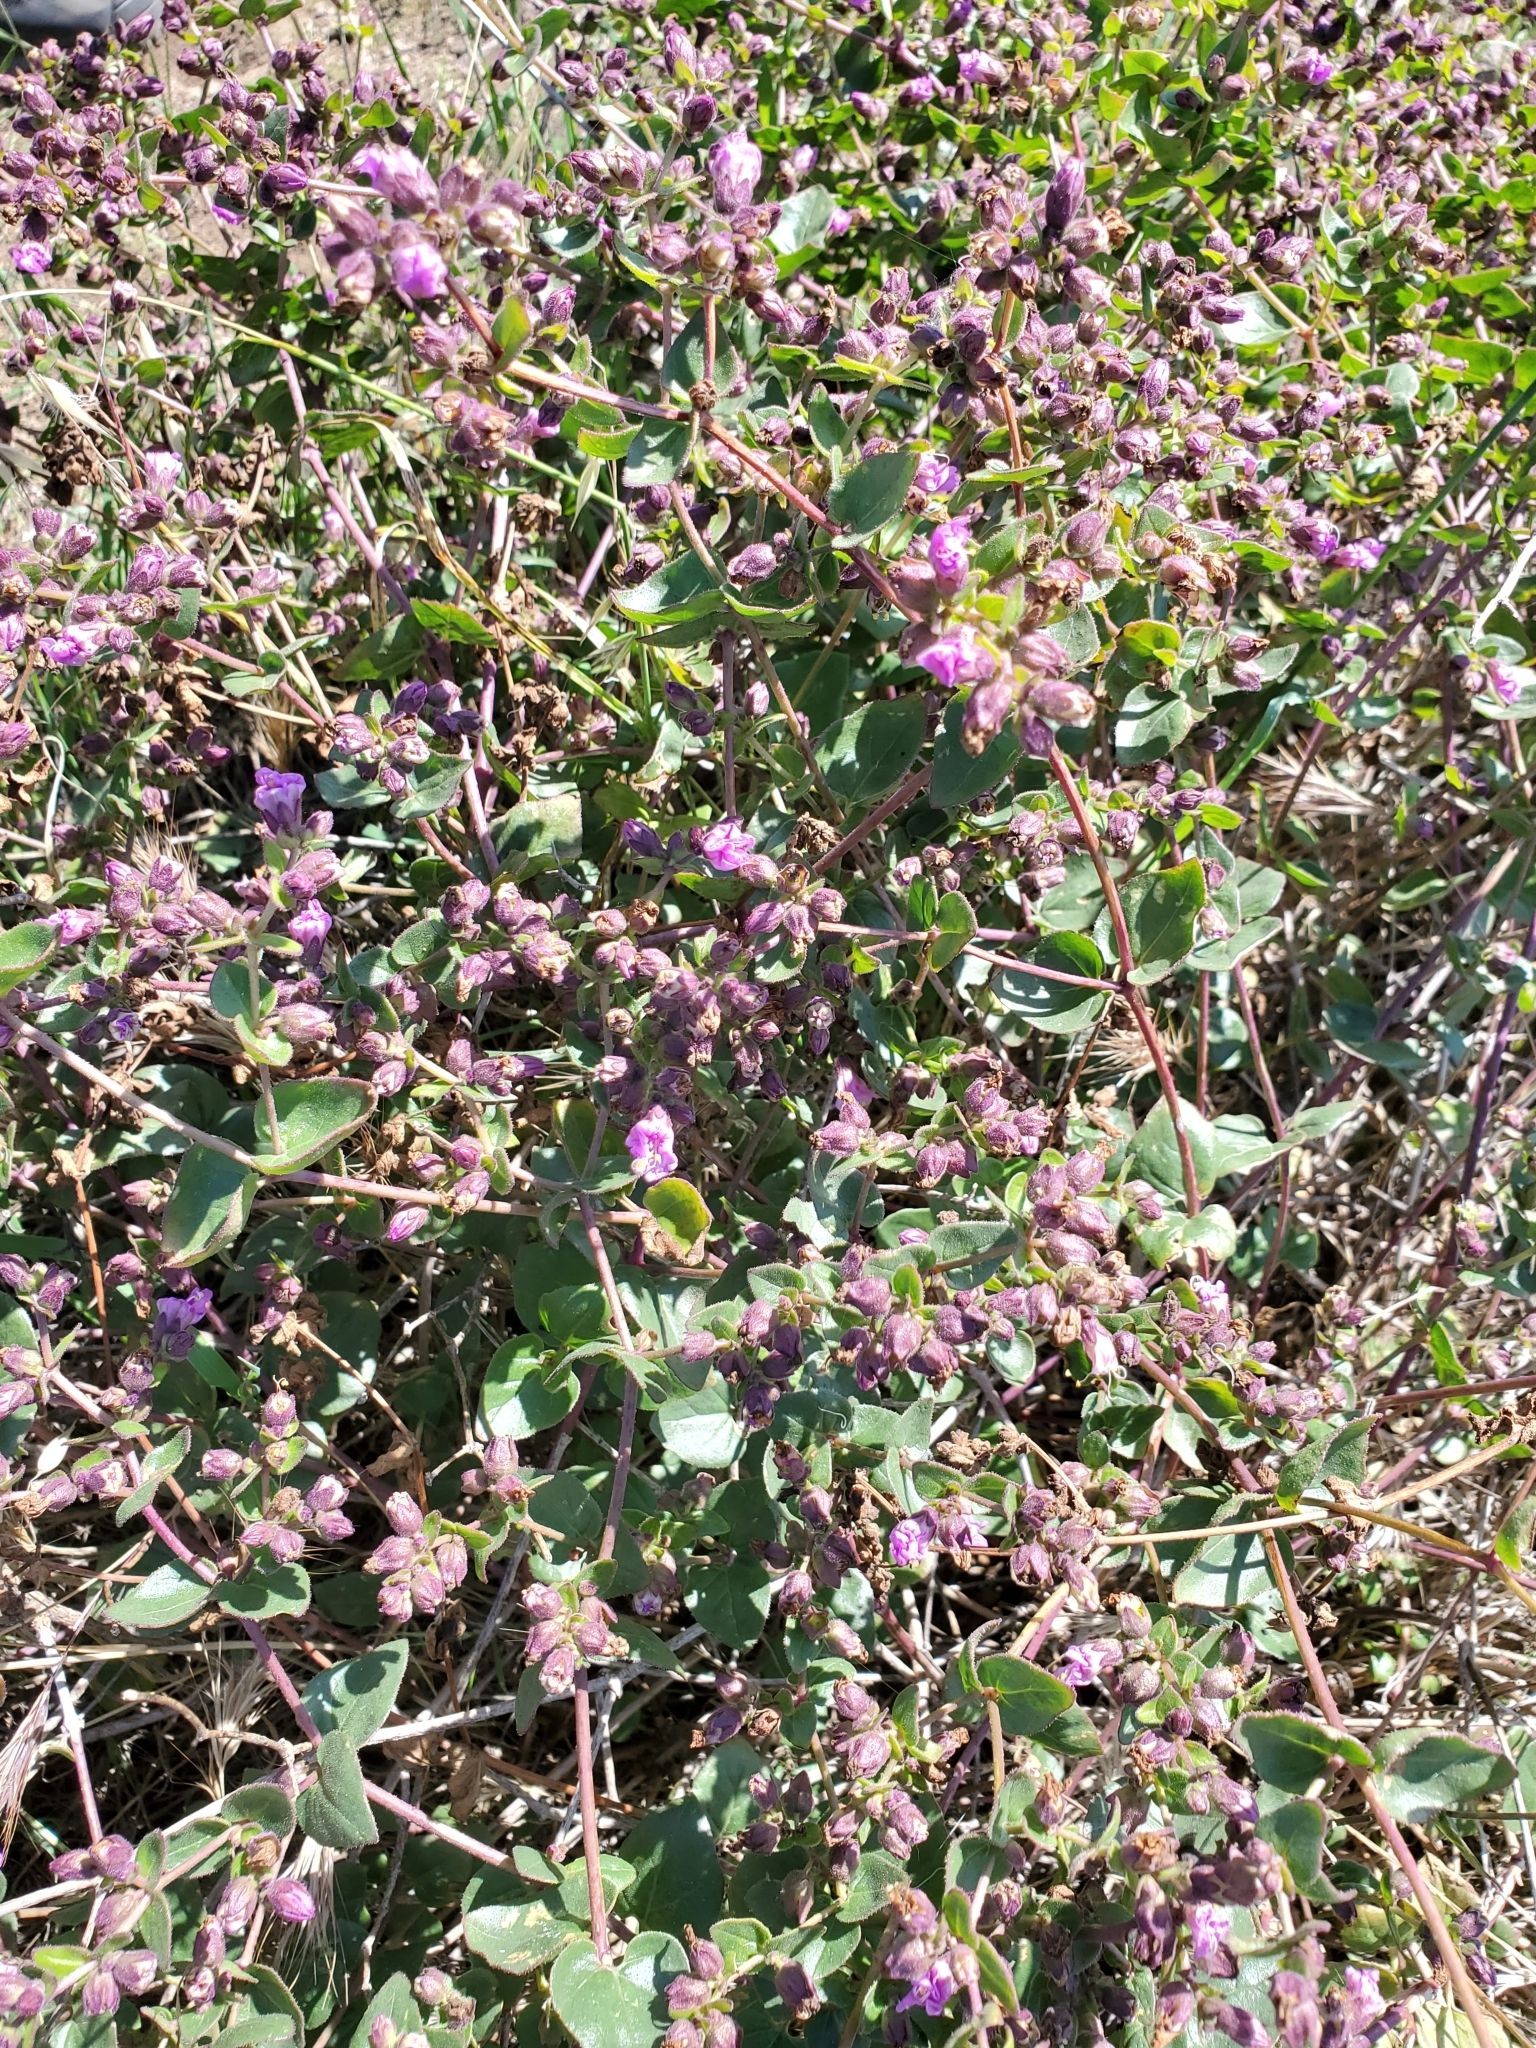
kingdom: Plantae
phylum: Tracheophyta
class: Magnoliopsida
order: Caryophyllales
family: Nyctaginaceae
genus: Mirabilis
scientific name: Mirabilis laevis
